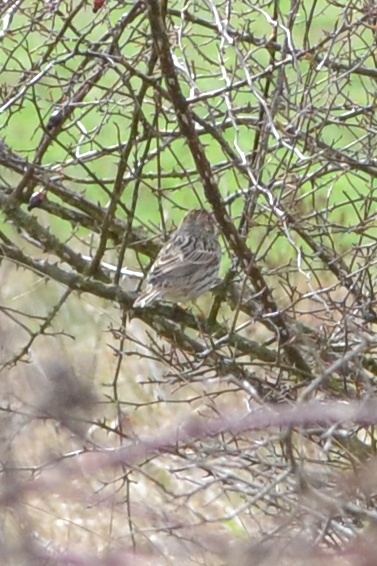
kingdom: Animalia
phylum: Chordata
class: Aves
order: Passeriformes
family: Emberizidae
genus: Emberiza
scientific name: Emberiza calandra
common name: Corn bunting
